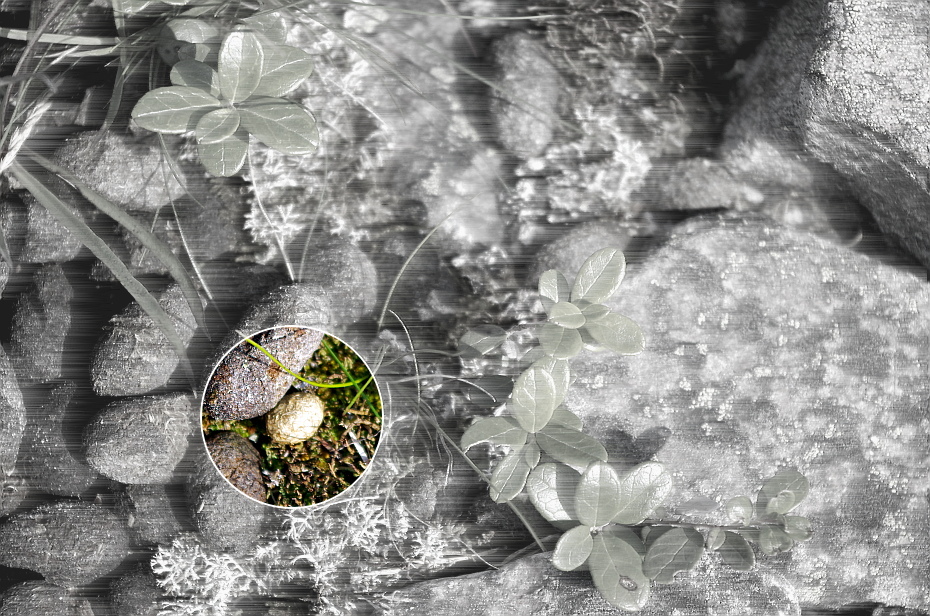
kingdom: Animalia
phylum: Chordata
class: Mammalia
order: Lagomorpha
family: Leporidae
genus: Lepus
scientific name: Lepus timidus
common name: Mountain hare
